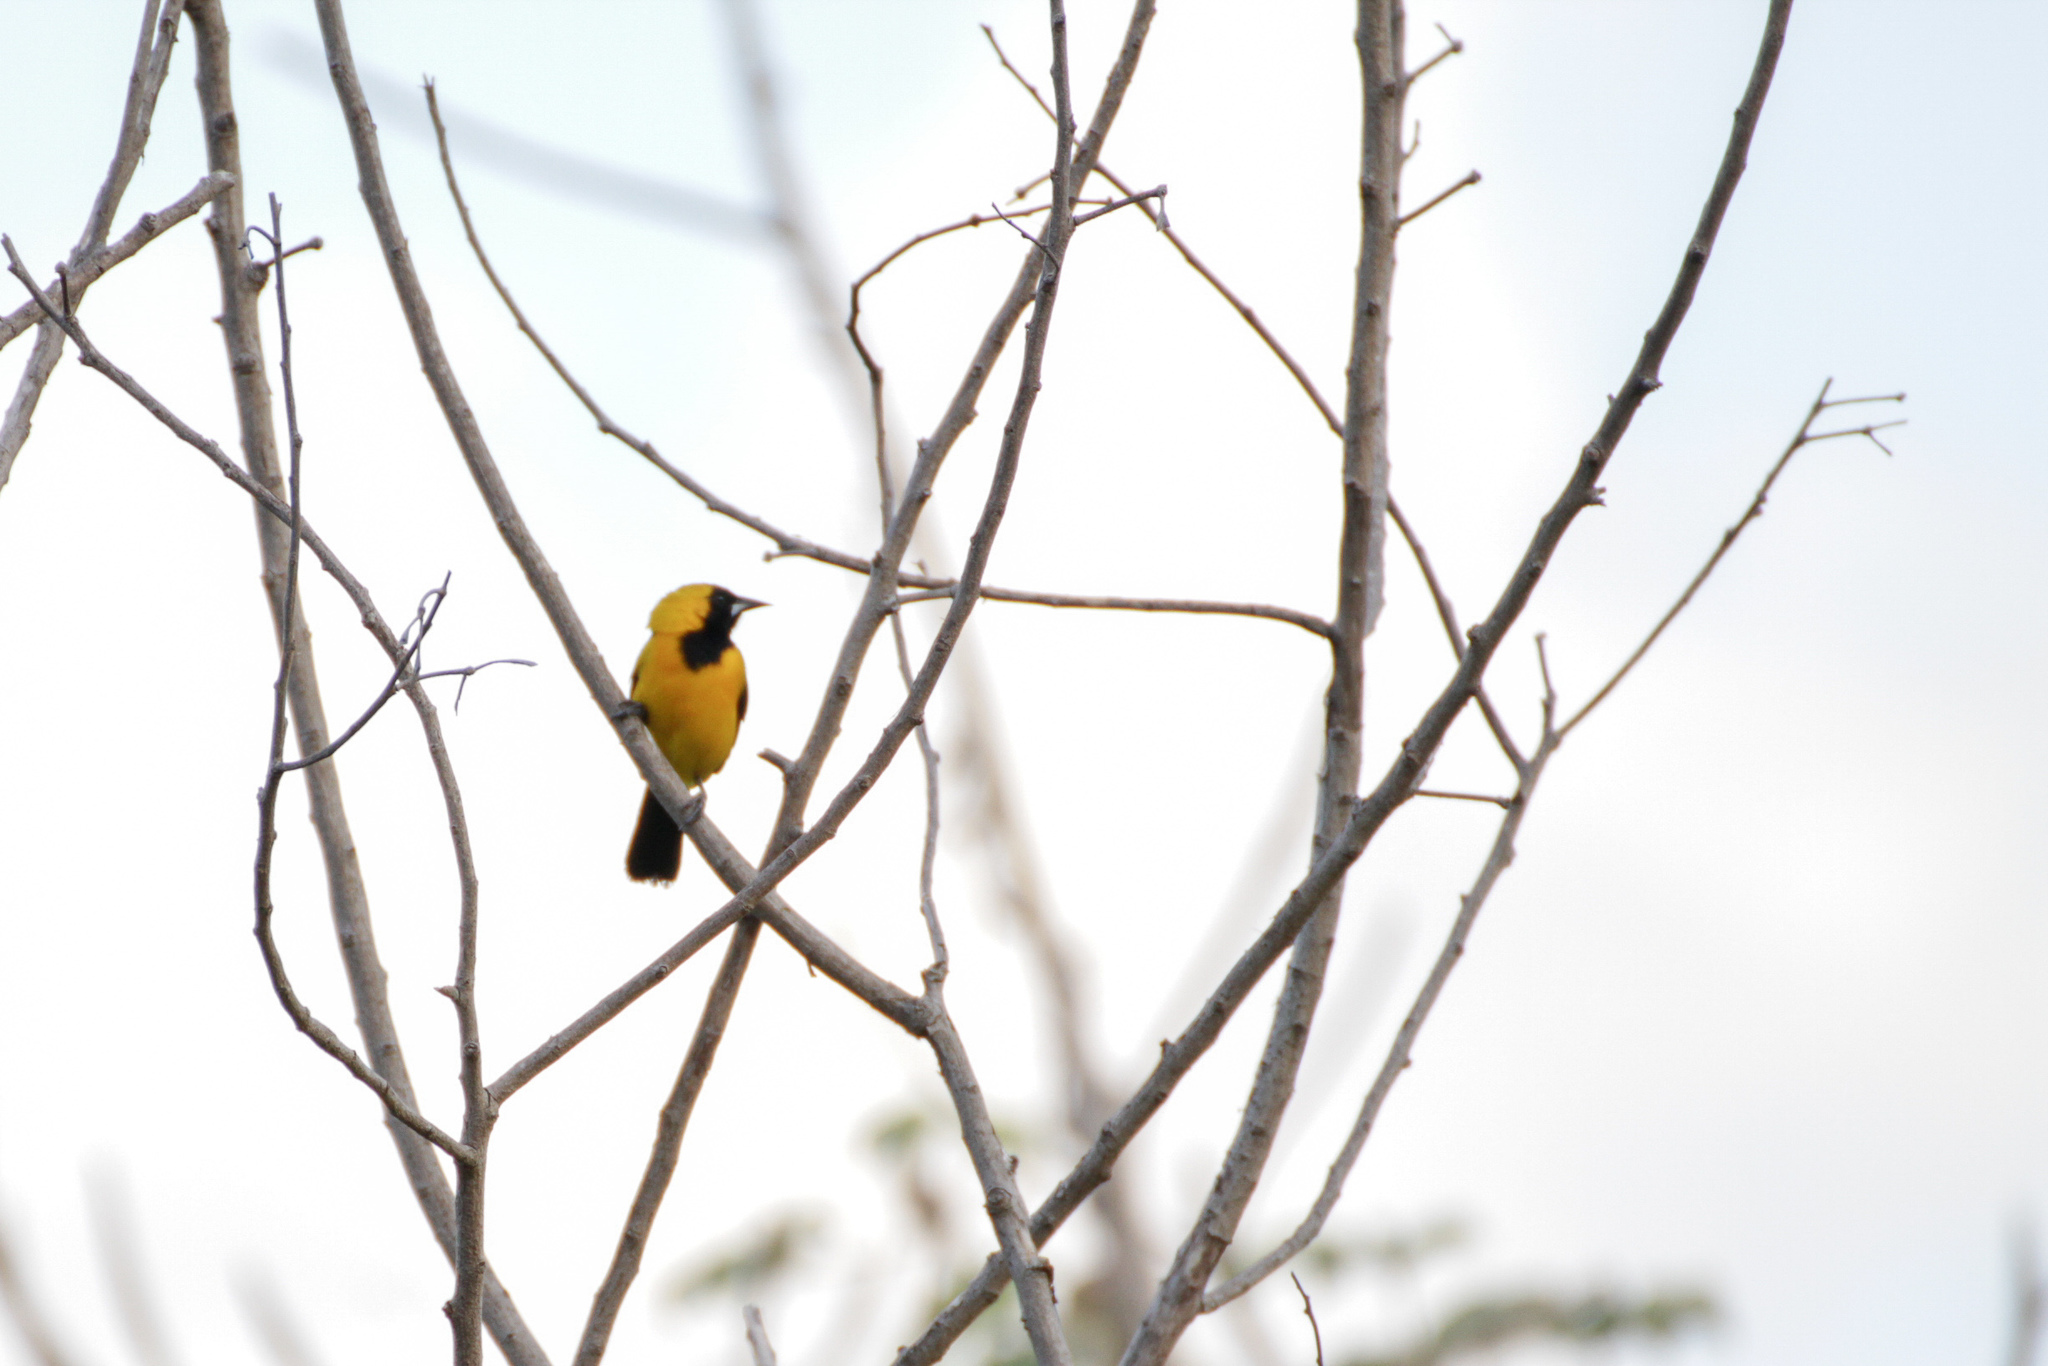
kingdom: Animalia
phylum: Chordata
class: Aves
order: Passeriformes
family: Icteridae
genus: Icterus
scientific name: Icterus chrysater
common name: Yellow-backed oriole
